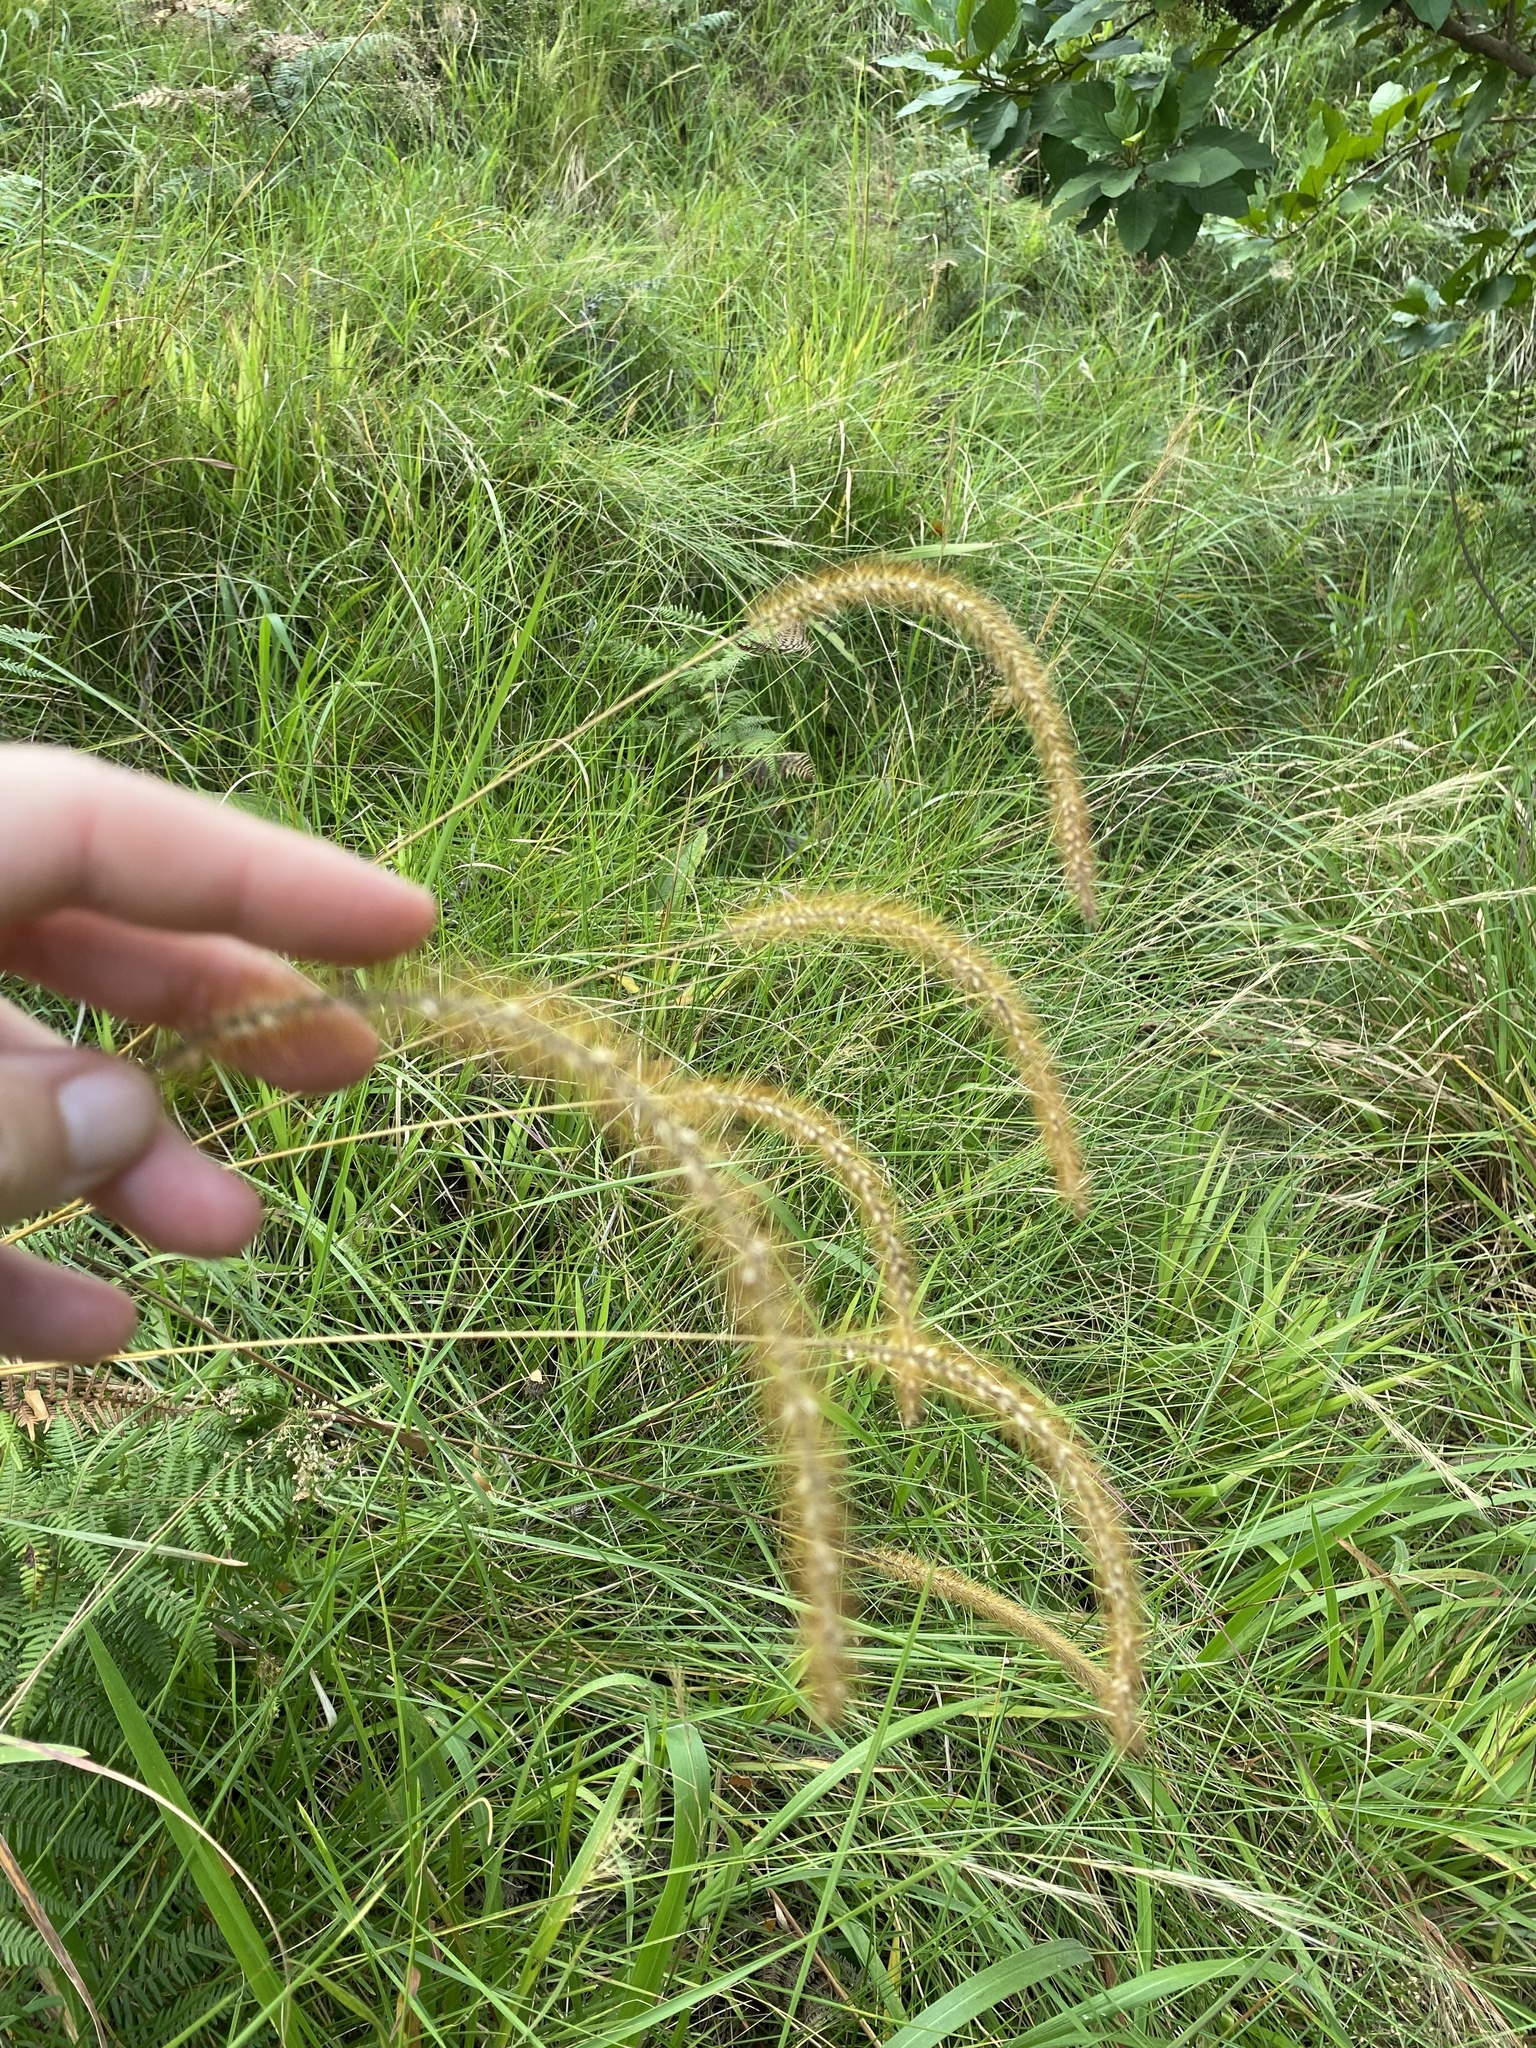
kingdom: Plantae
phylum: Tracheophyta
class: Liliopsida
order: Poales
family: Poaceae
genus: Setaria
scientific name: Setaria sphacelata
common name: African bristlegrass
